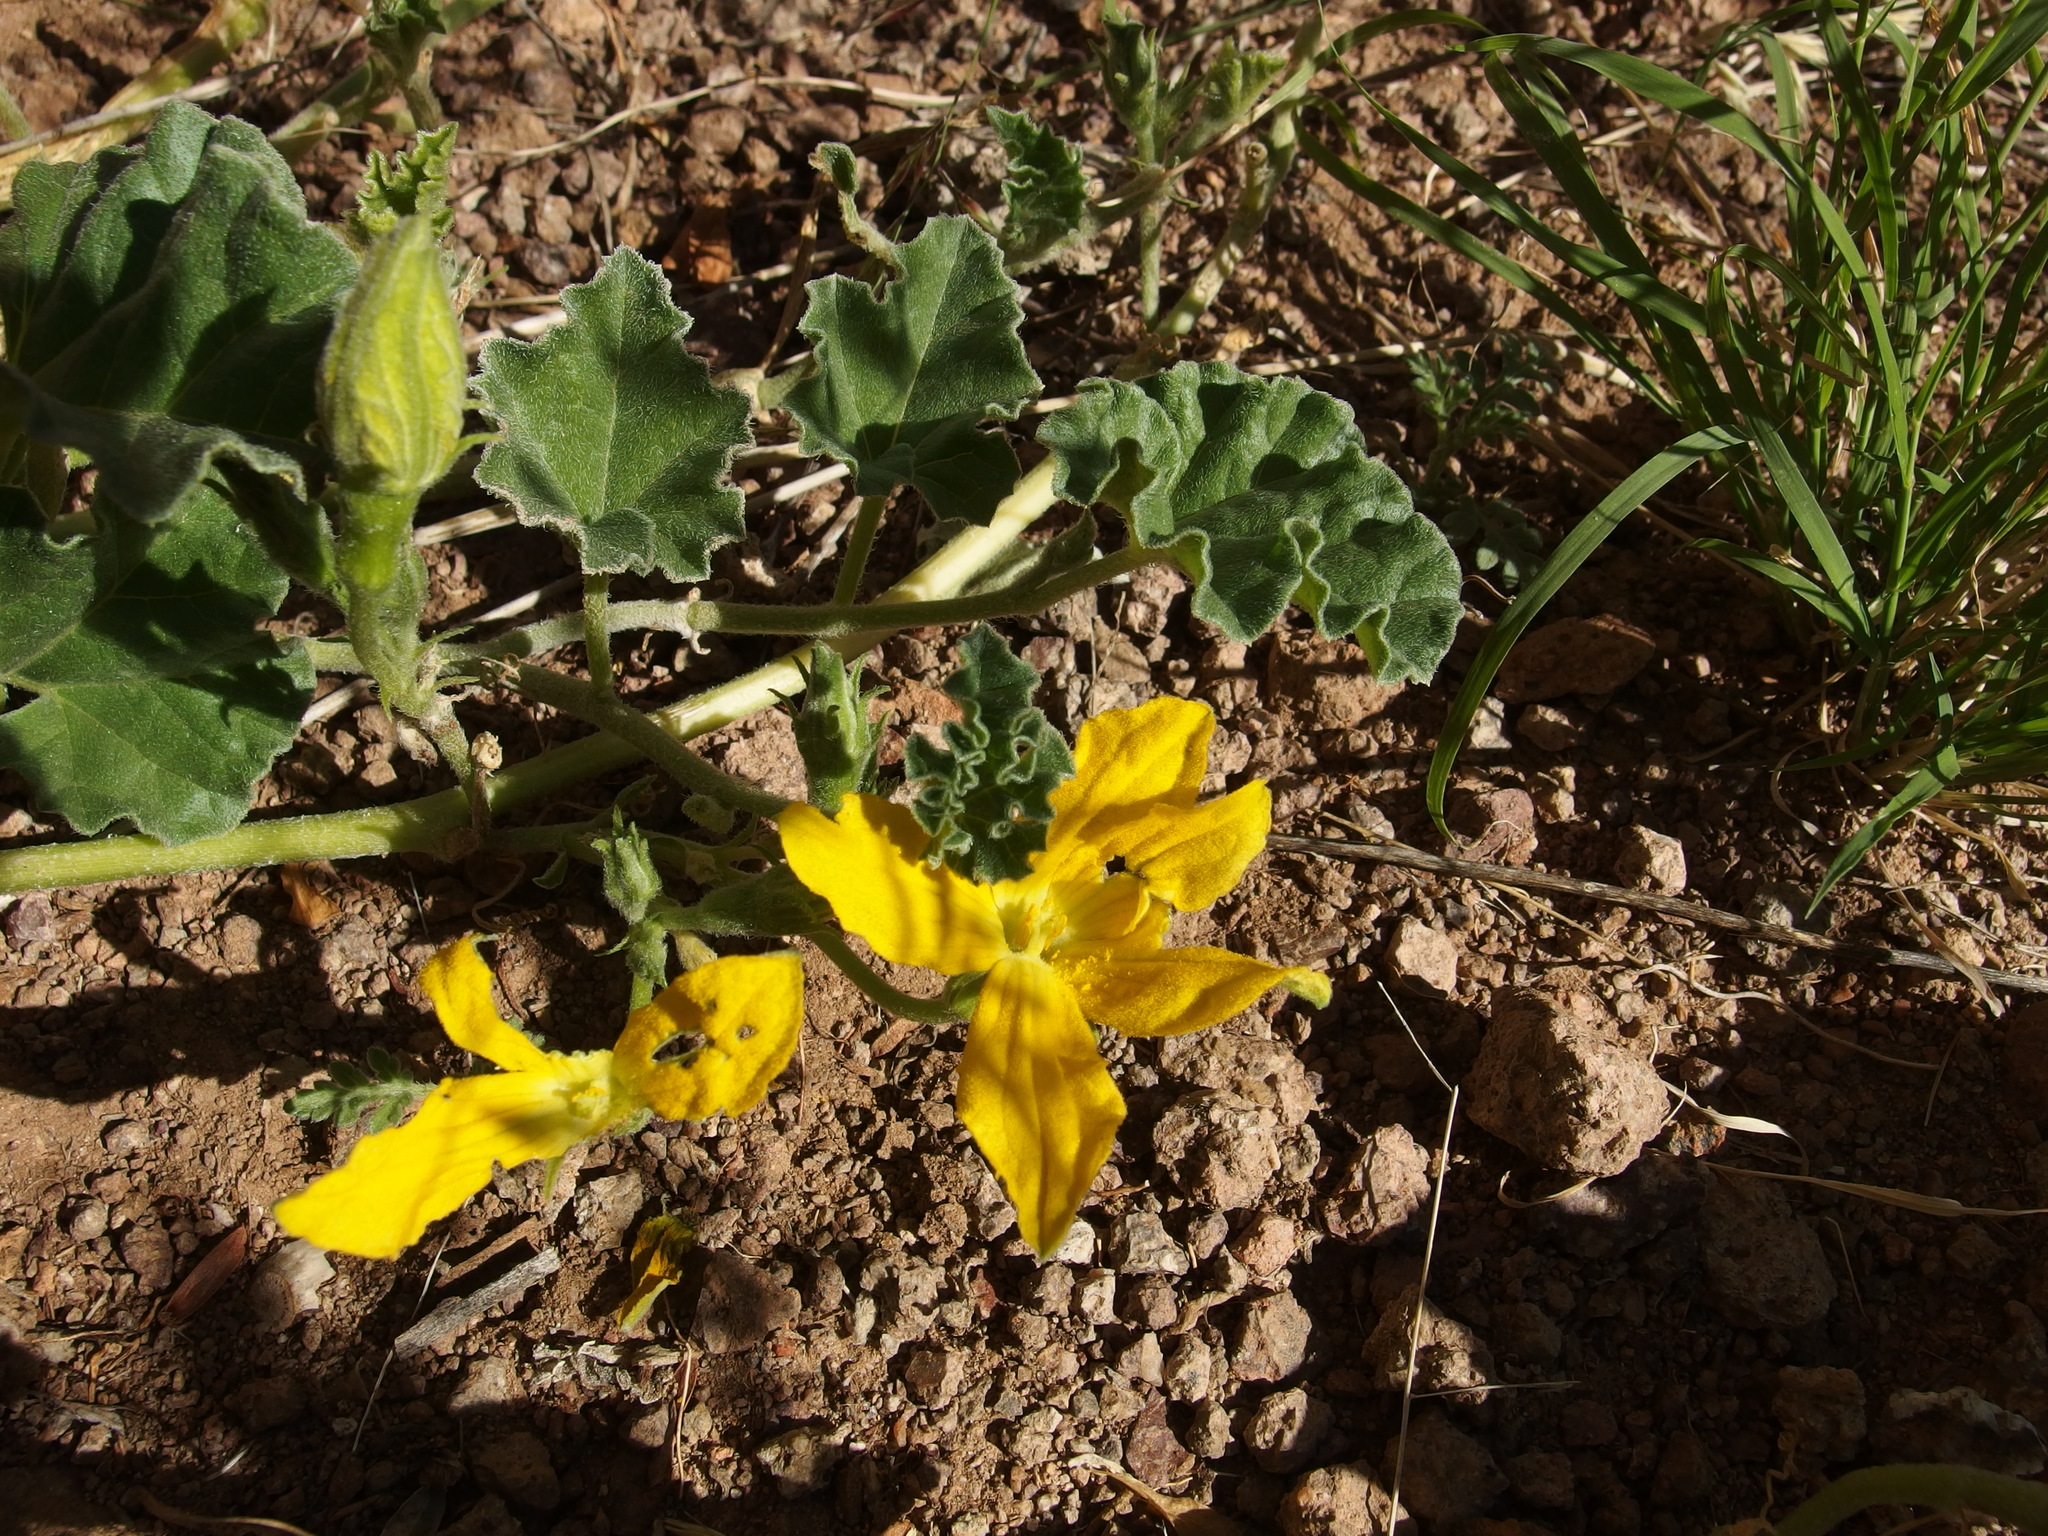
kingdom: Plantae
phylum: Tracheophyta
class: Magnoliopsida
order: Cucurbitales
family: Cucurbitaceae
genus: Apodanthera
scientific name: Apodanthera undulata
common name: Melon-loco
